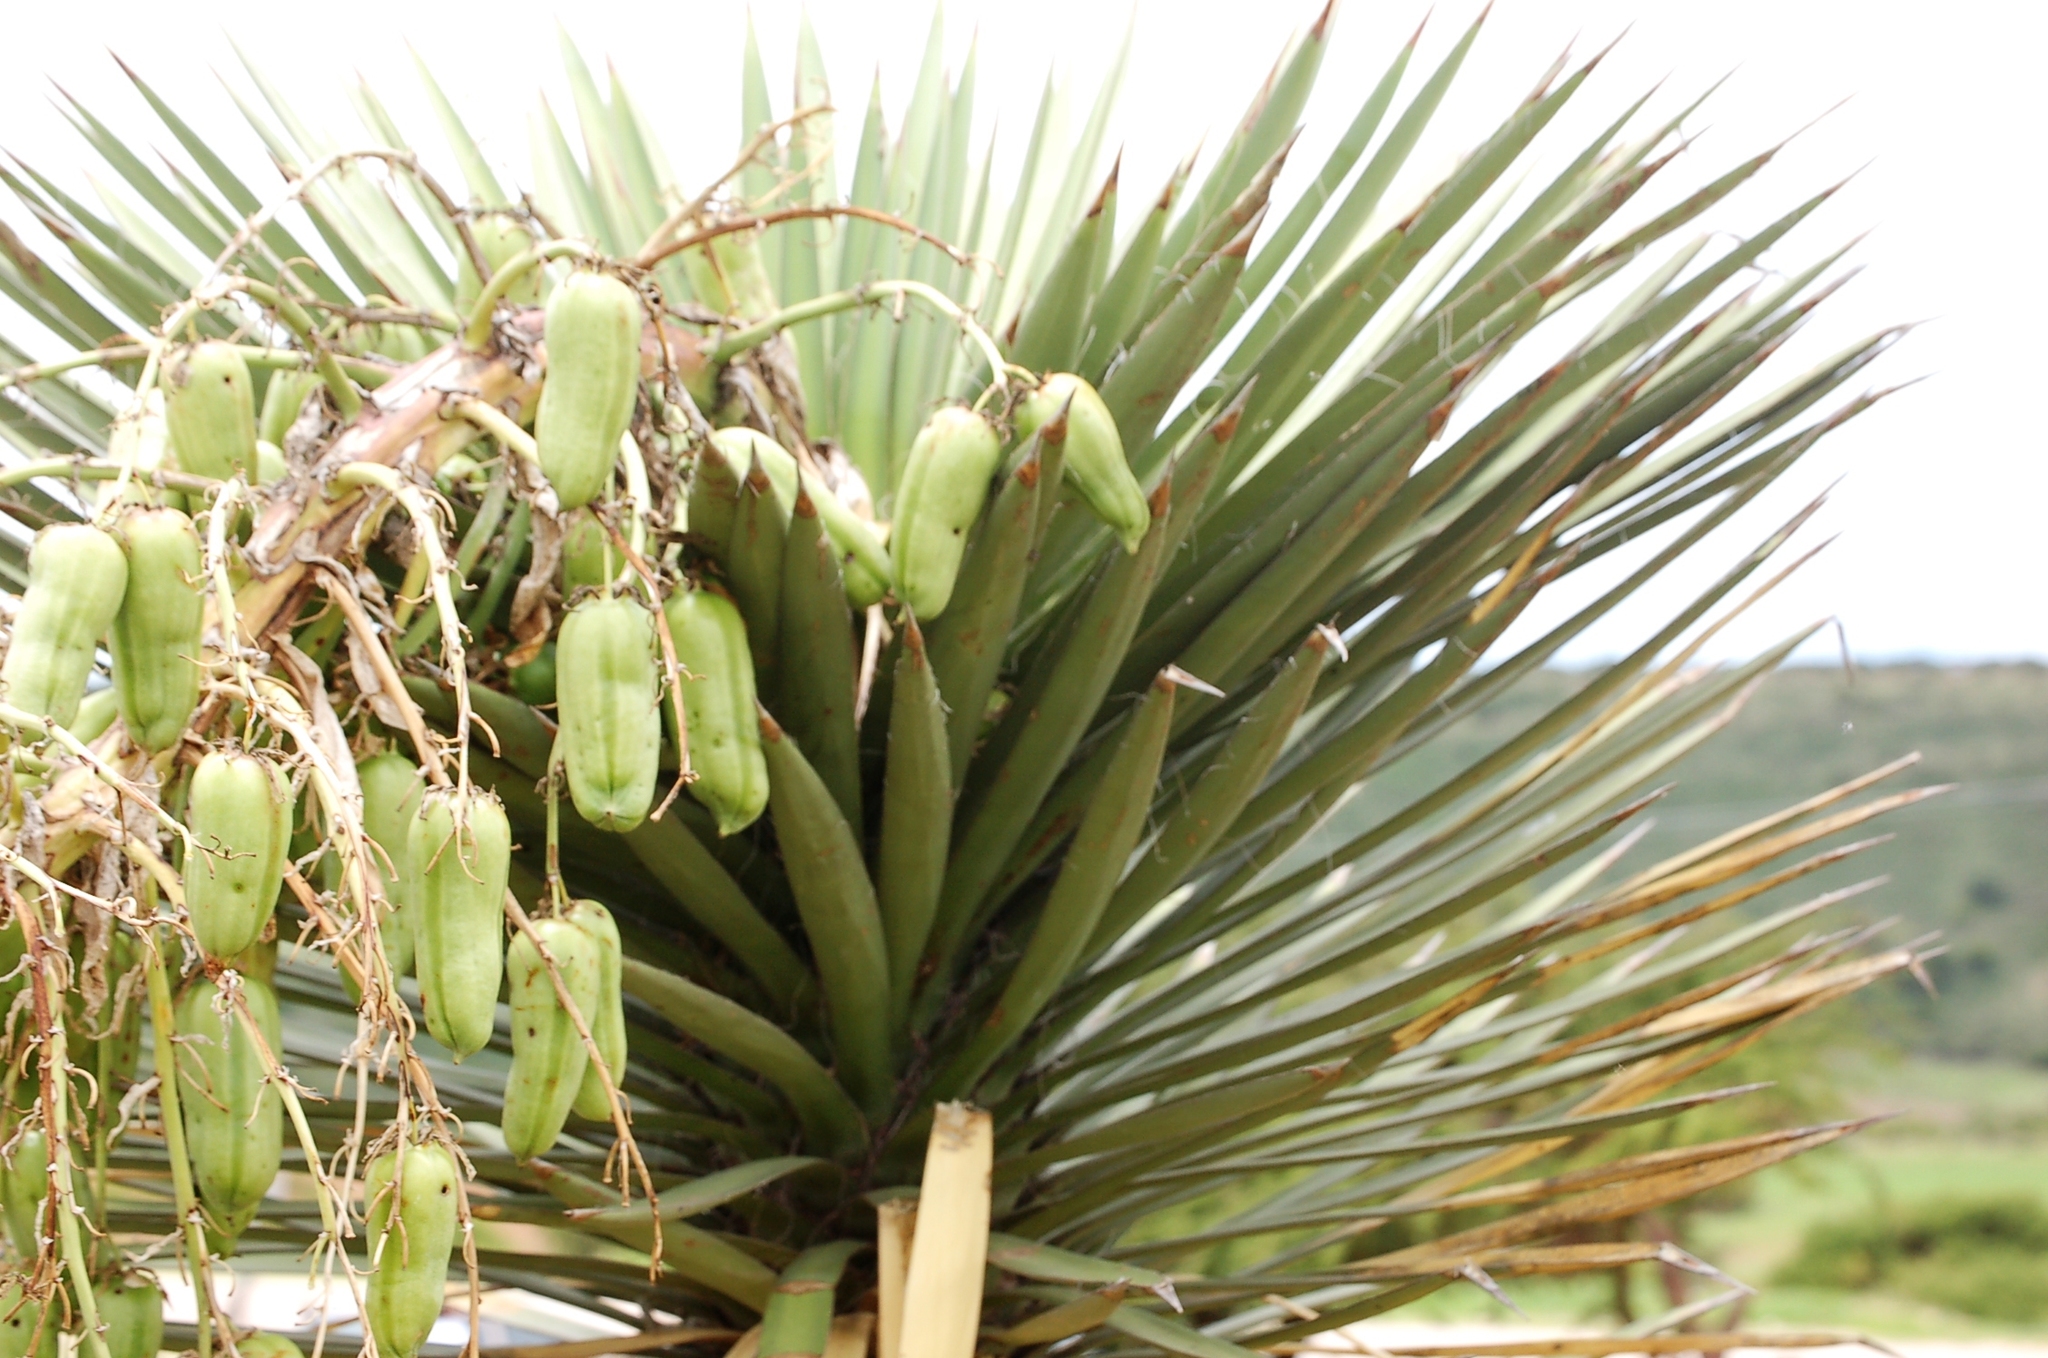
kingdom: Plantae
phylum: Tracheophyta
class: Liliopsida
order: Asparagales
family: Asparagaceae
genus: Yucca
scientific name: Yucca decipiens
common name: Chinese palm
